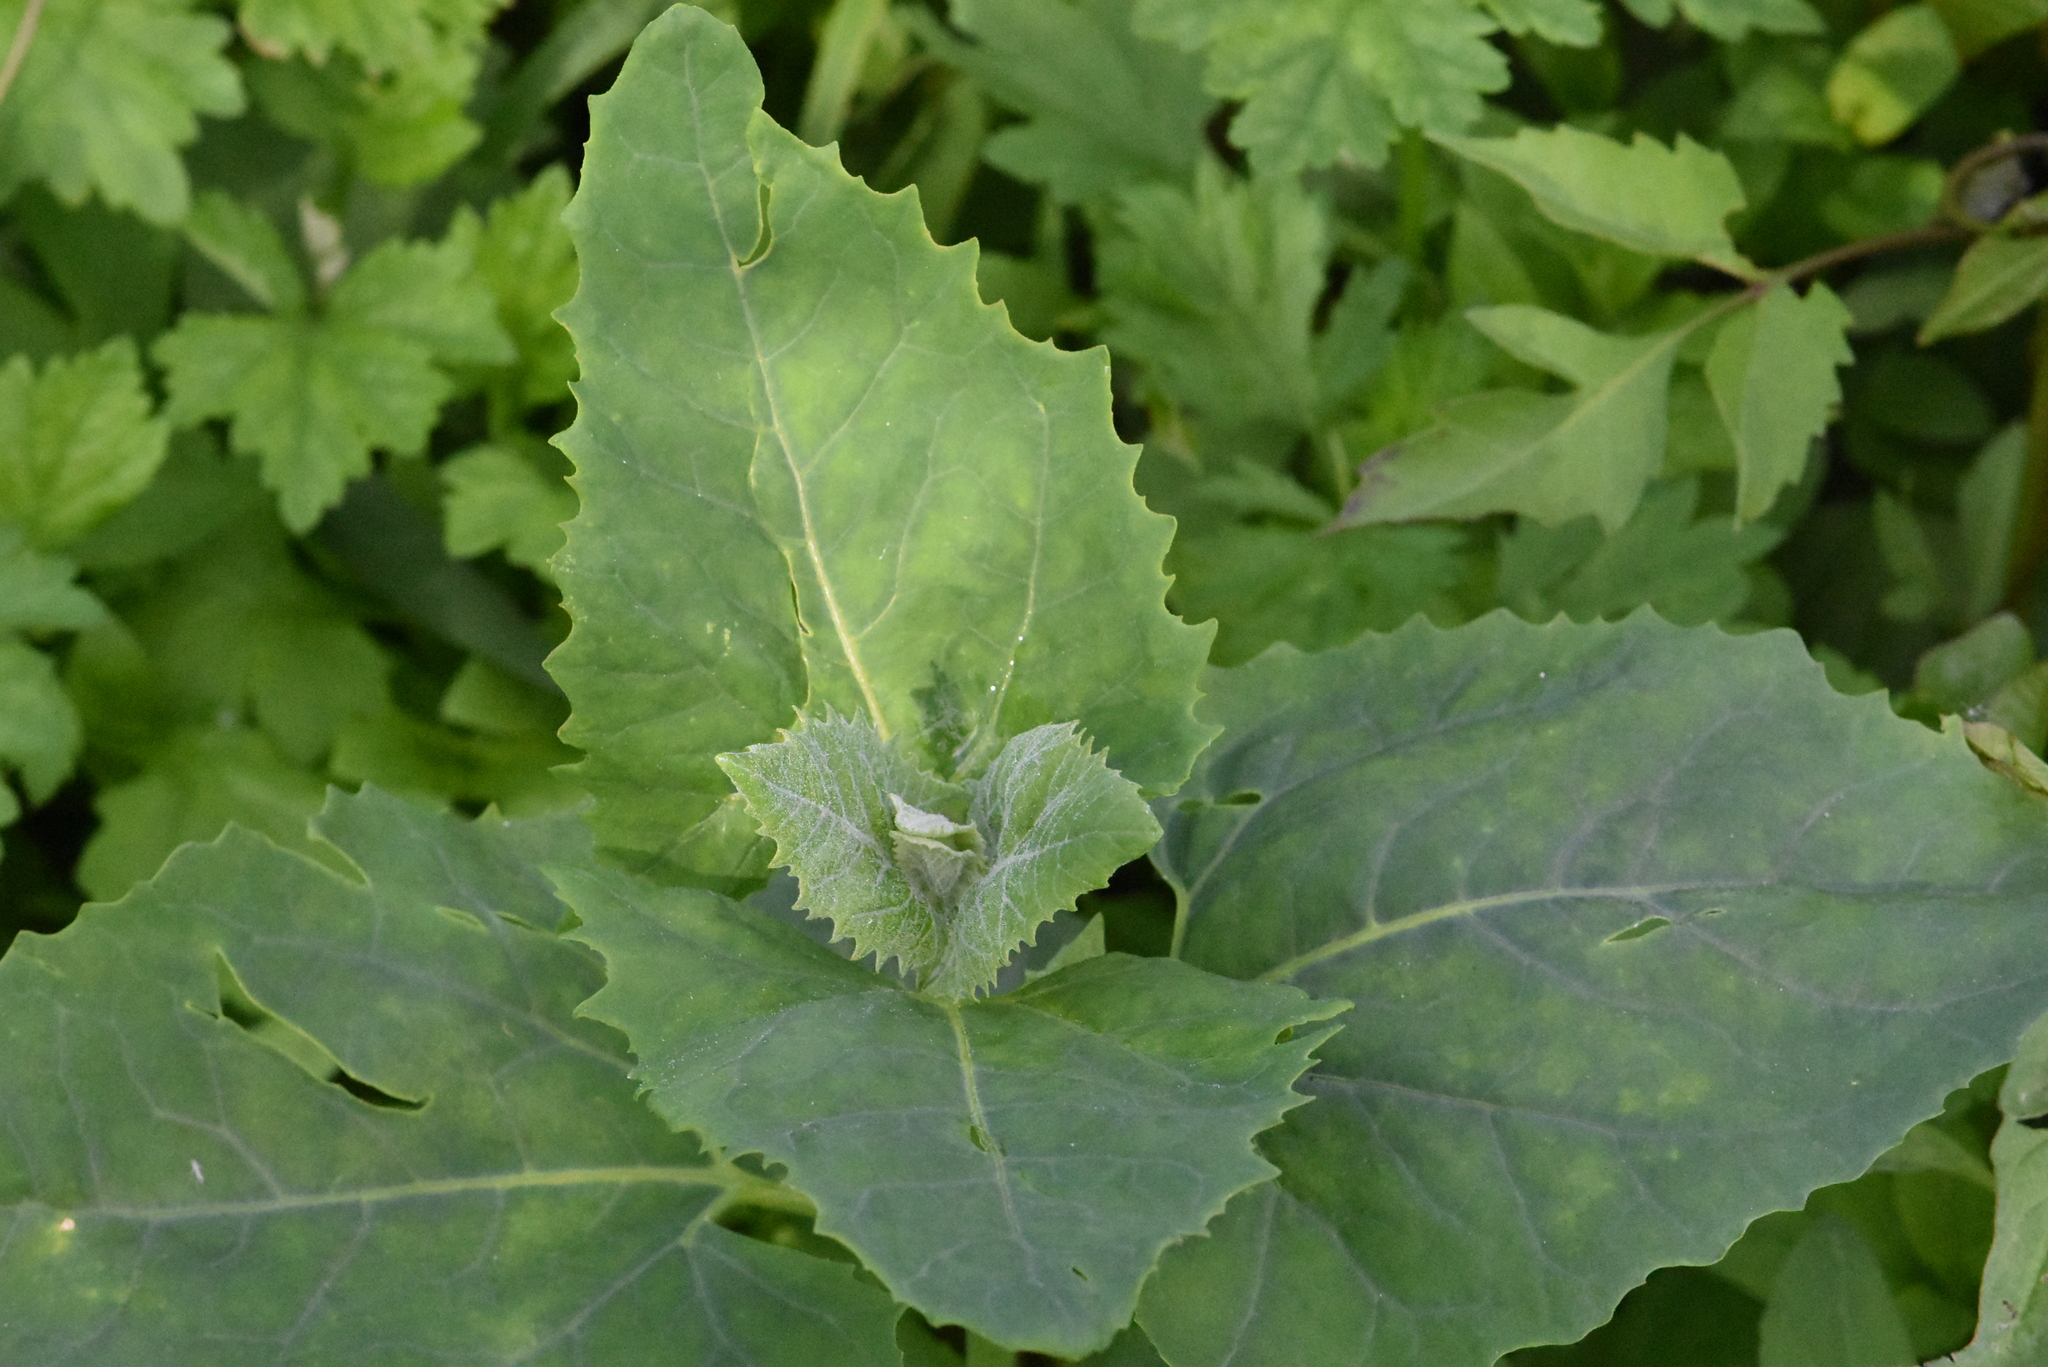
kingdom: Plantae
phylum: Tracheophyta
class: Magnoliopsida
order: Caryophyllales
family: Amaranthaceae
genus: Atriplex
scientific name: Atriplex sagittata
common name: Purple orache
